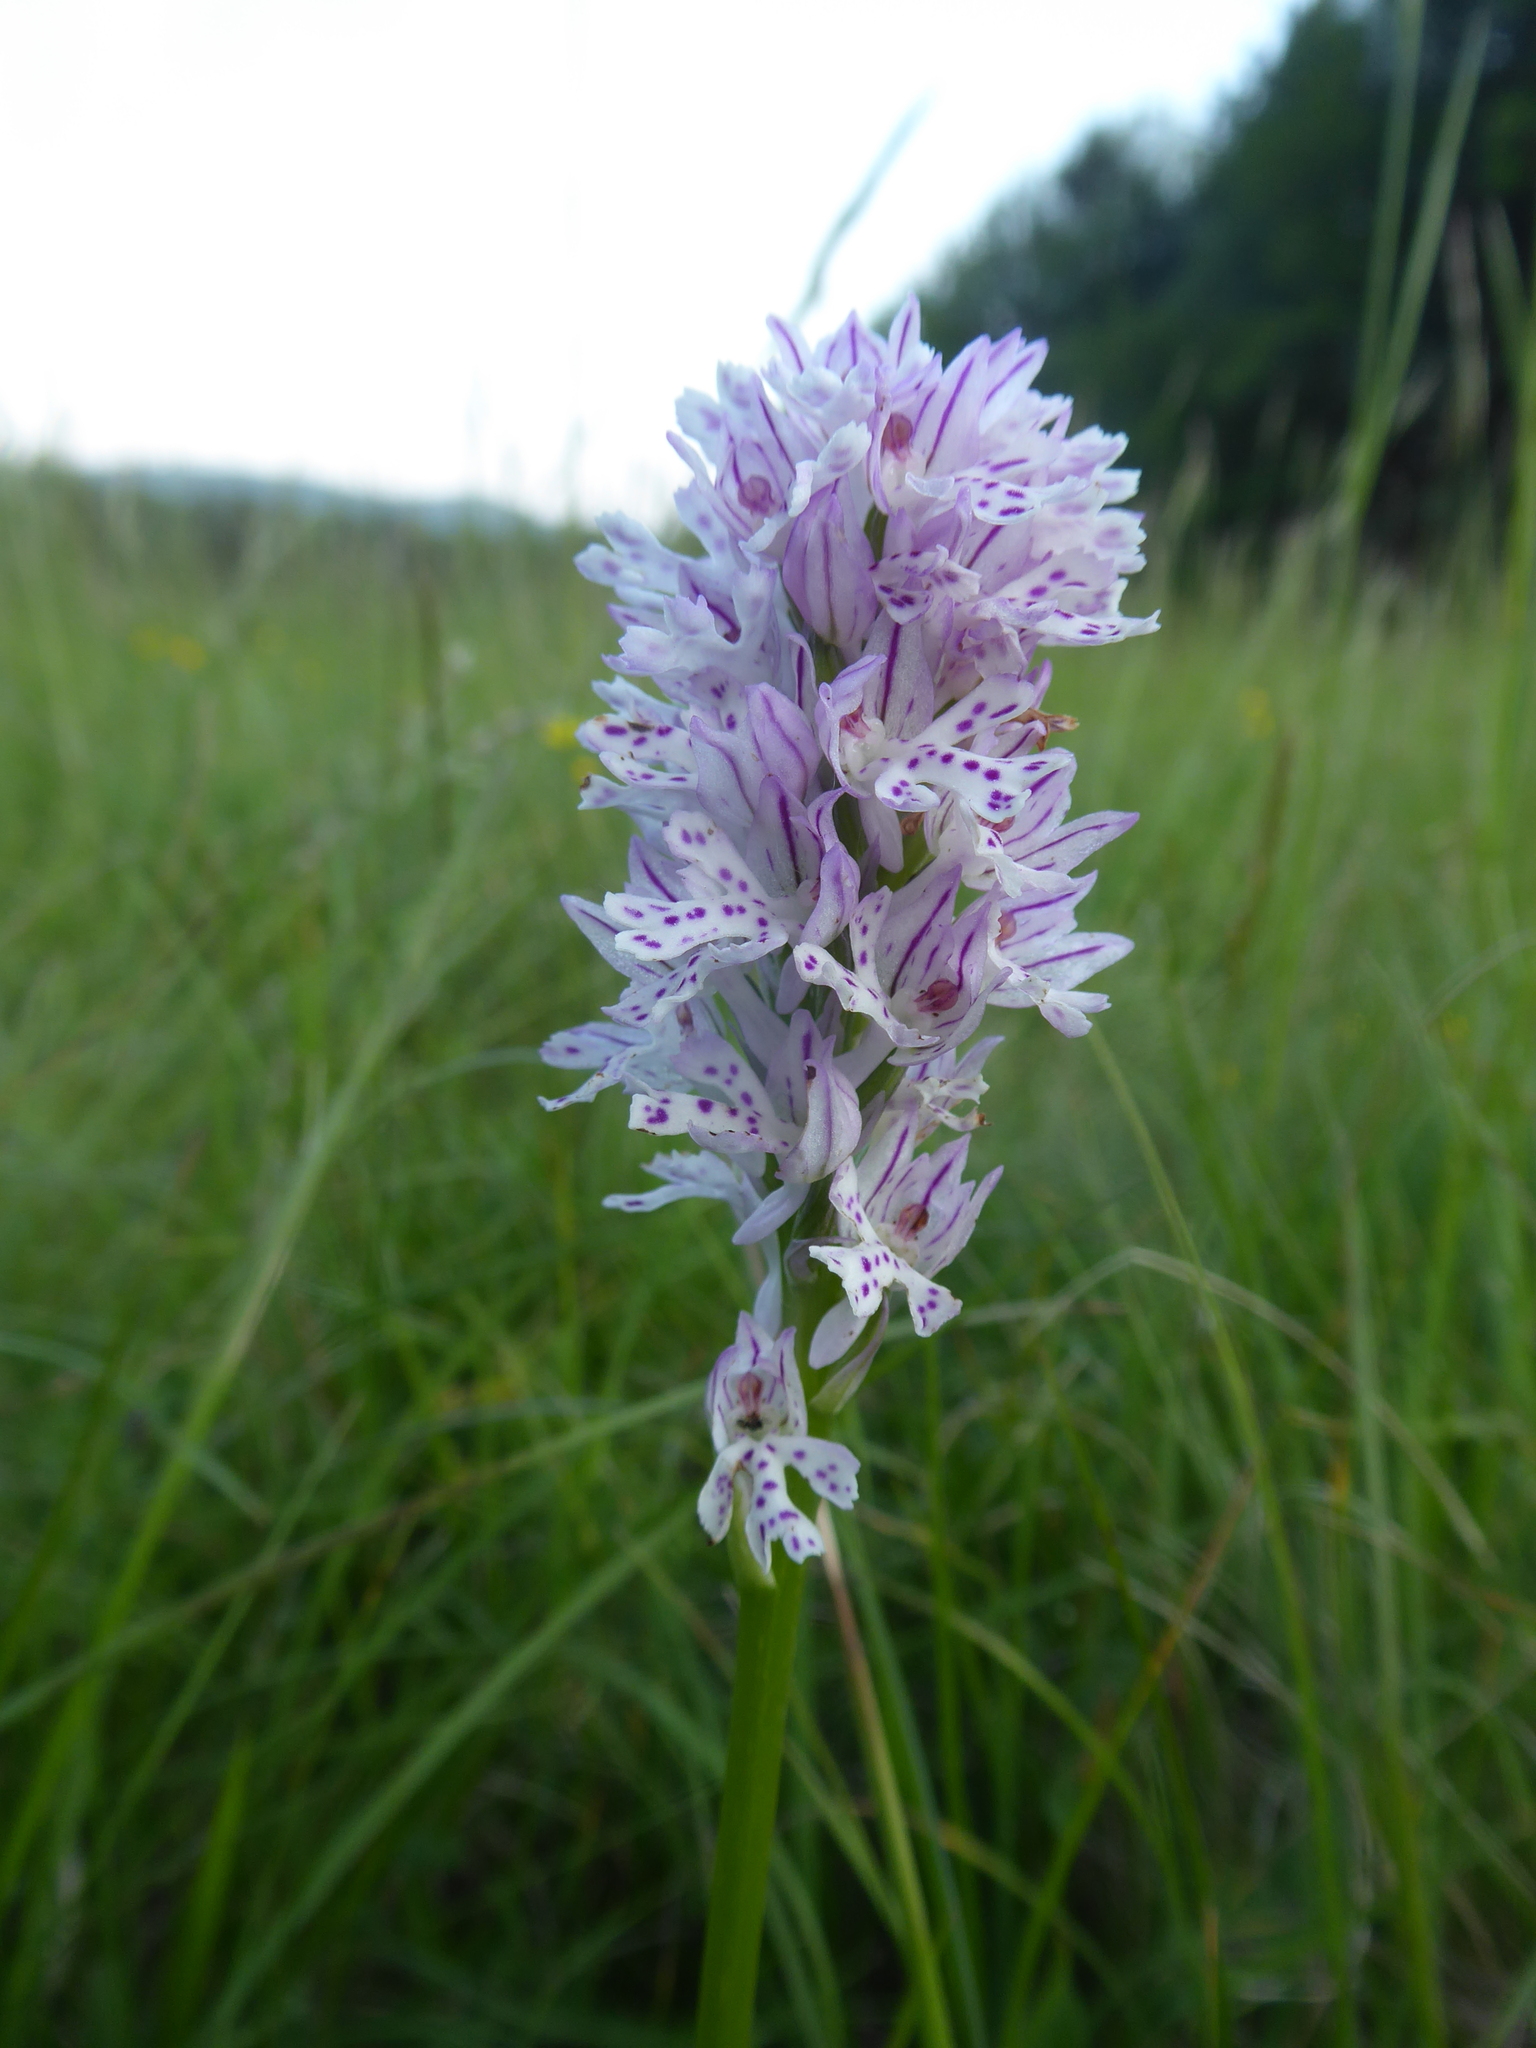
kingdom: Plantae
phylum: Tracheophyta
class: Liliopsida
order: Asparagales
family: Orchidaceae
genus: Neotinea
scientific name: Neotinea tridentata
